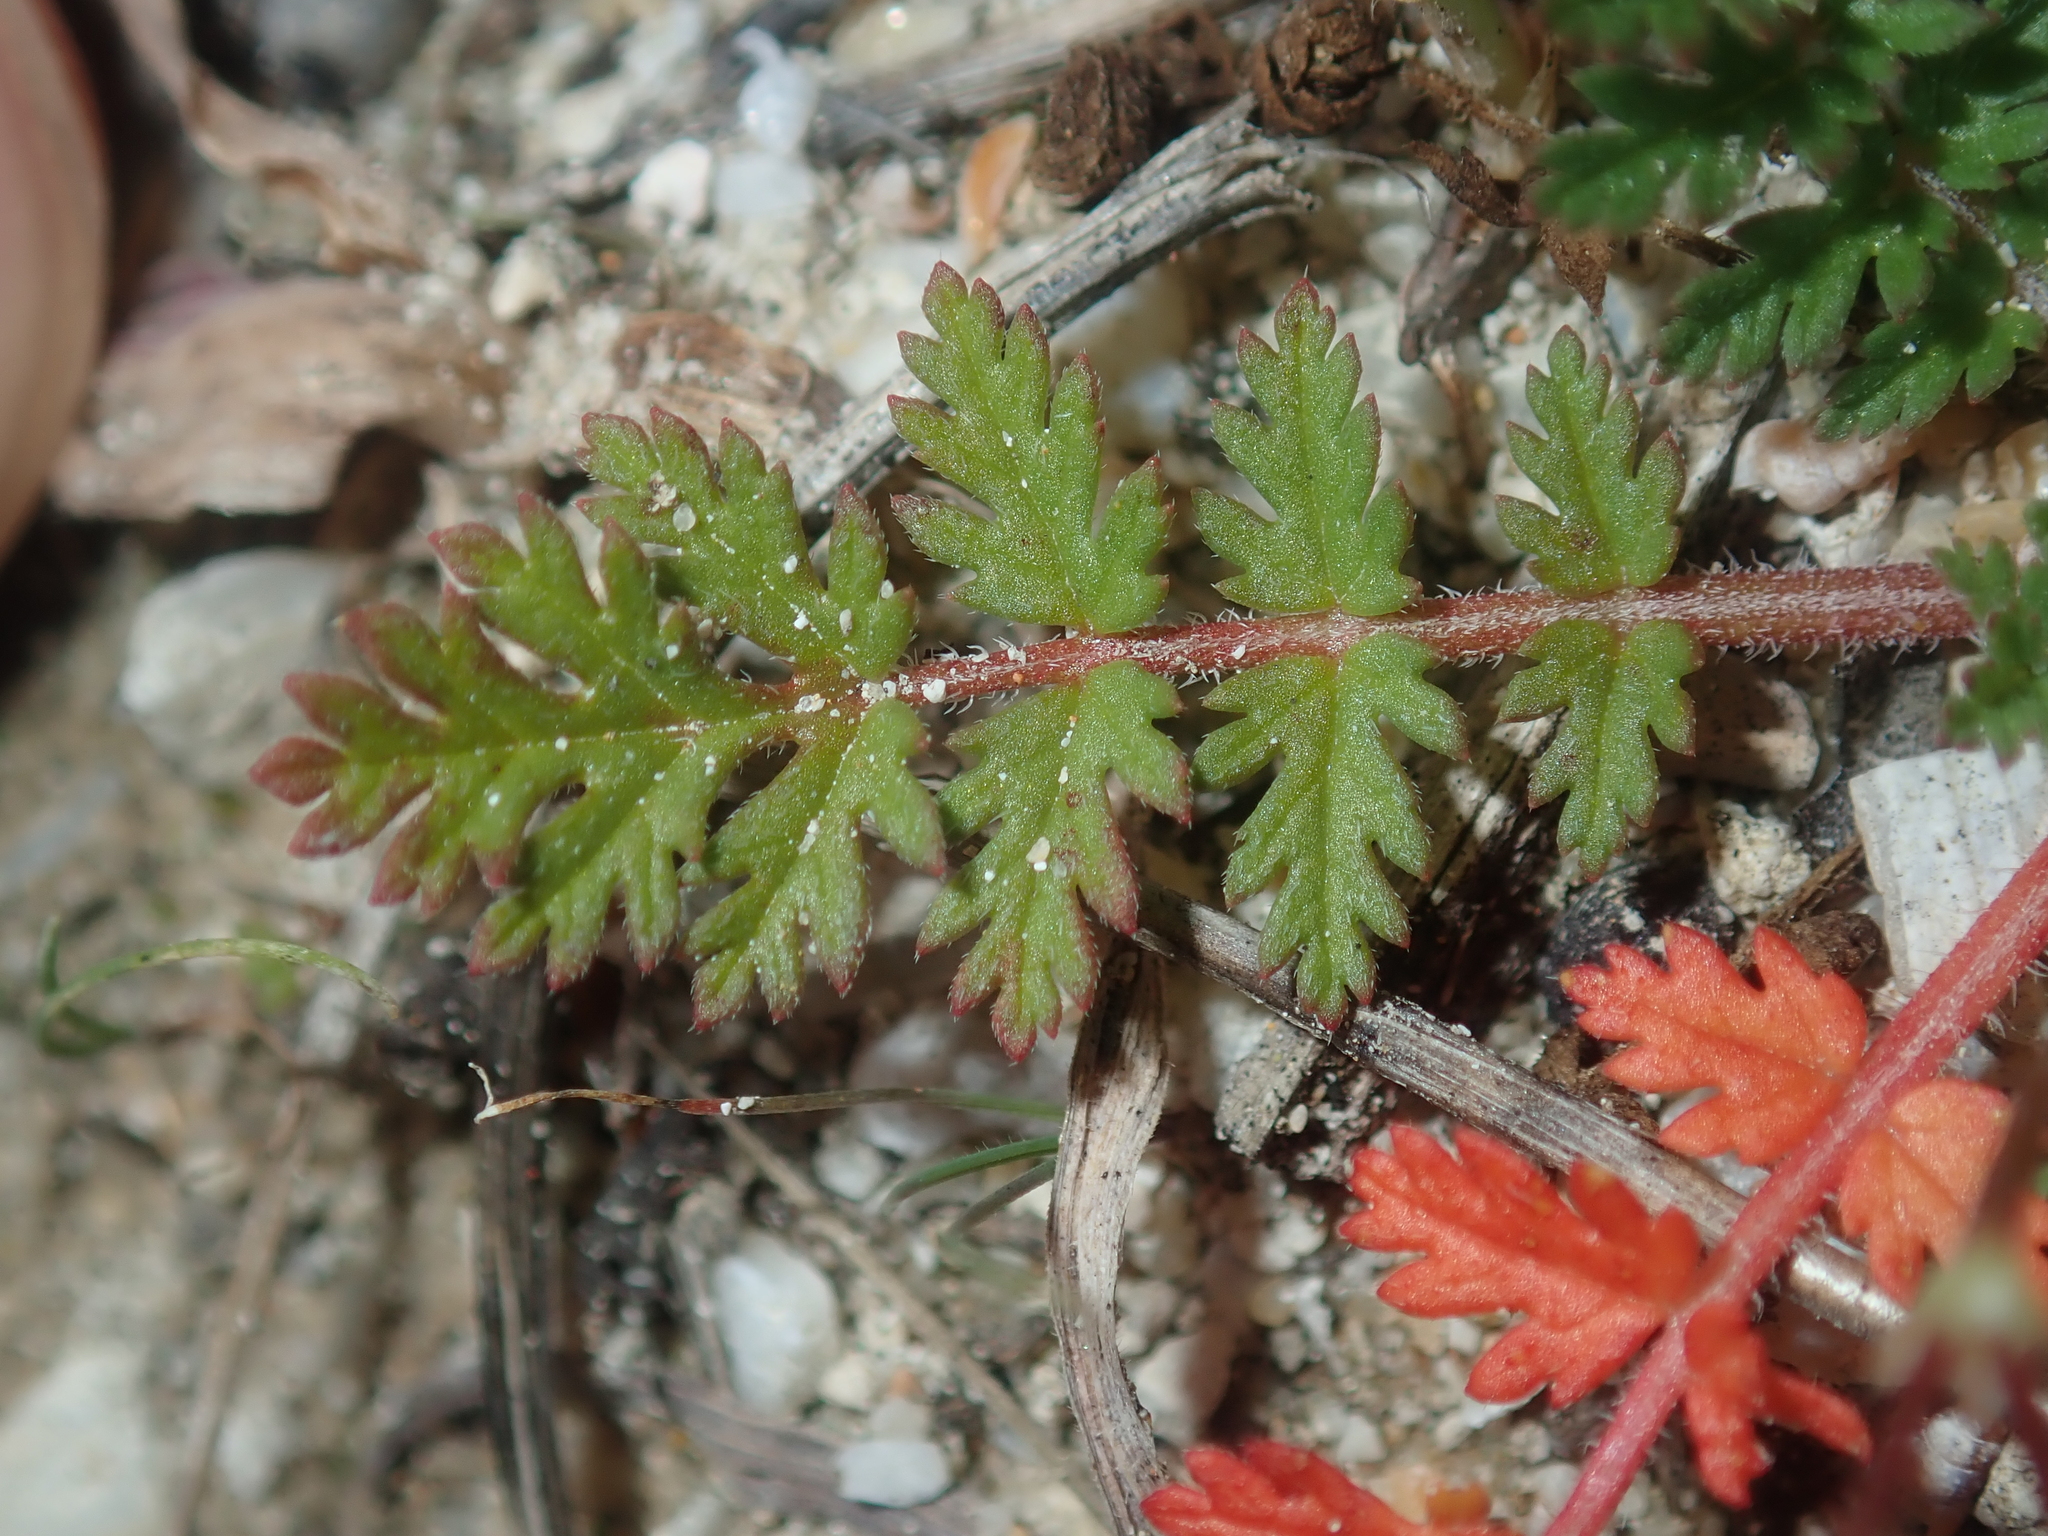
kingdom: Plantae
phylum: Tracheophyta
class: Magnoliopsida
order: Geraniales
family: Geraniaceae
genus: Erodium
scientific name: Erodium cicutarium
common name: Common stork's-bill
